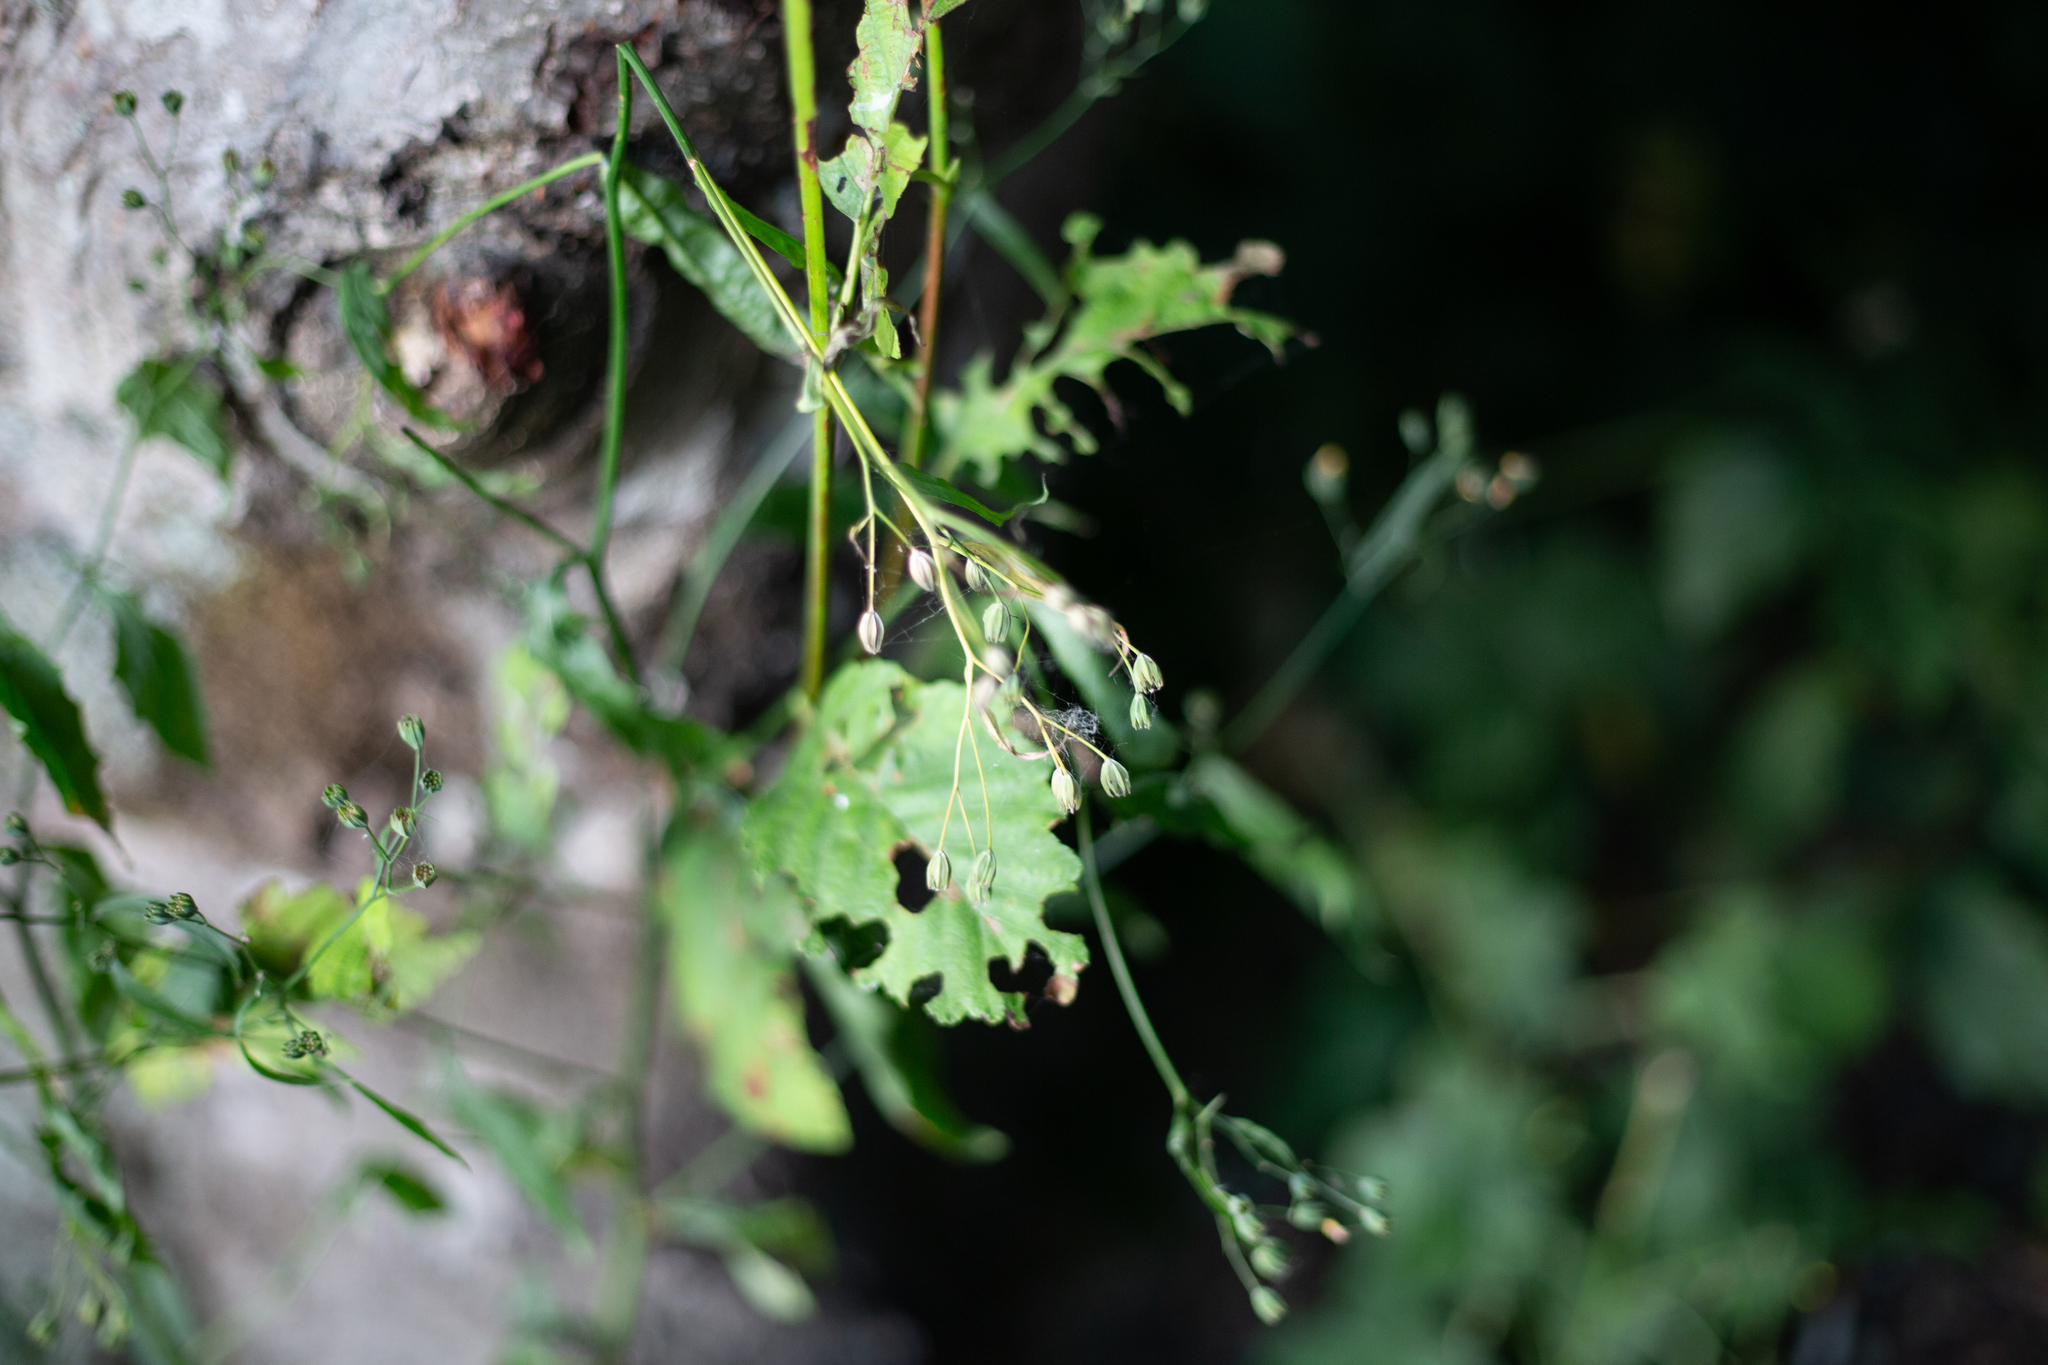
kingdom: Plantae
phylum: Tracheophyta
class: Magnoliopsida
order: Asterales
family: Asteraceae
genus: Lapsana
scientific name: Lapsana communis
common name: Nipplewort
